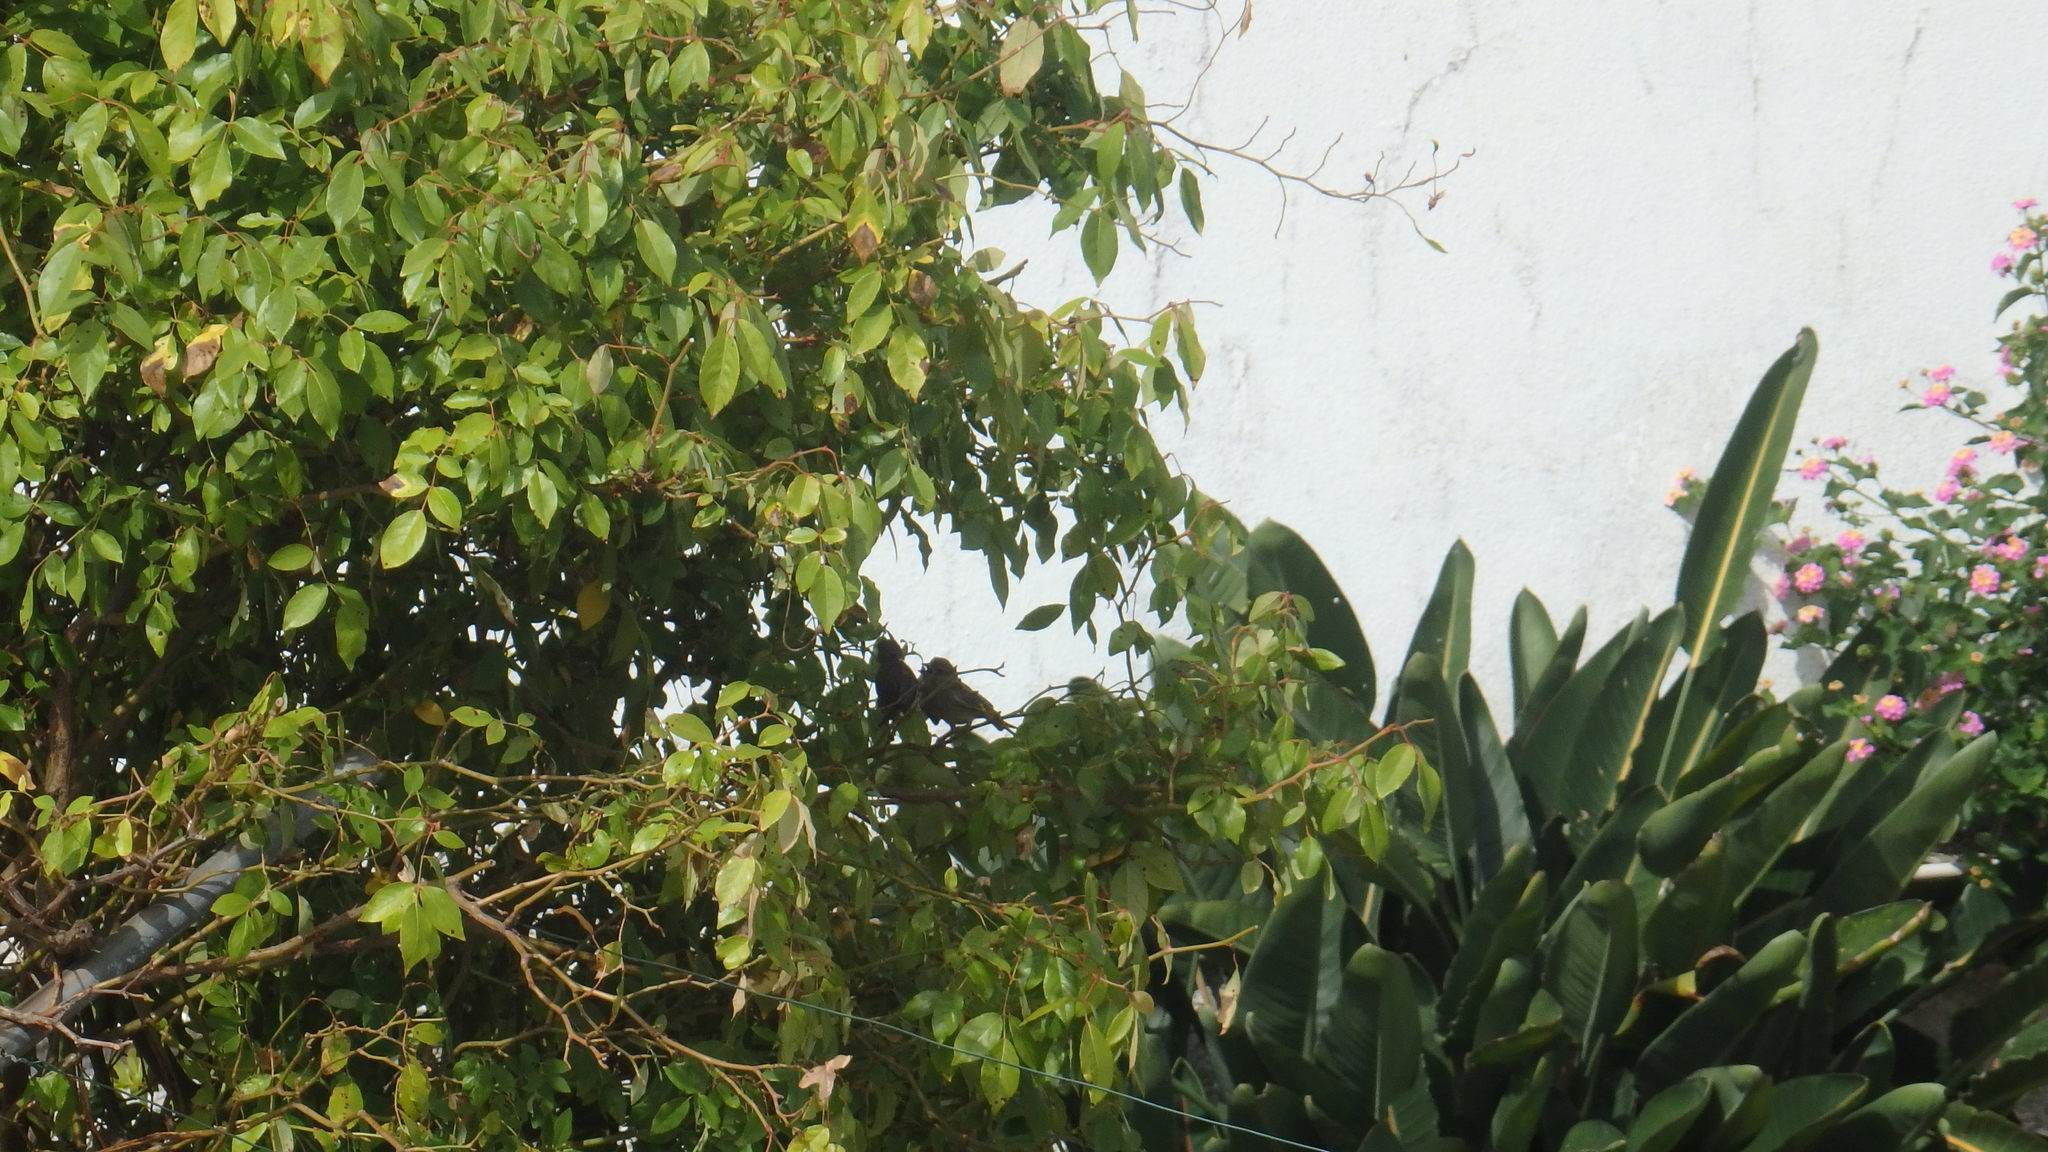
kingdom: Plantae
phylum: Tracheophyta
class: Liliopsida
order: Poales
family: Poaceae
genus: Chloris
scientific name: Chloris chloris
